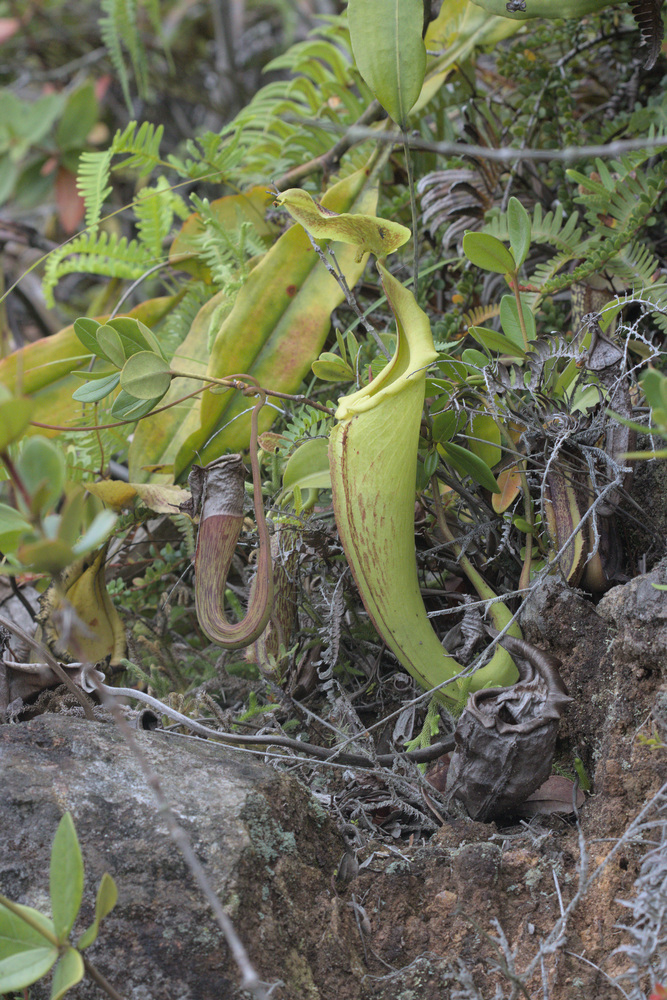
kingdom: Plantae
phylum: Tracheophyta
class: Magnoliopsida
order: Caryophyllales
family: Nepenthaceae
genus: Nepenthes
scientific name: Nepenthes maxima
